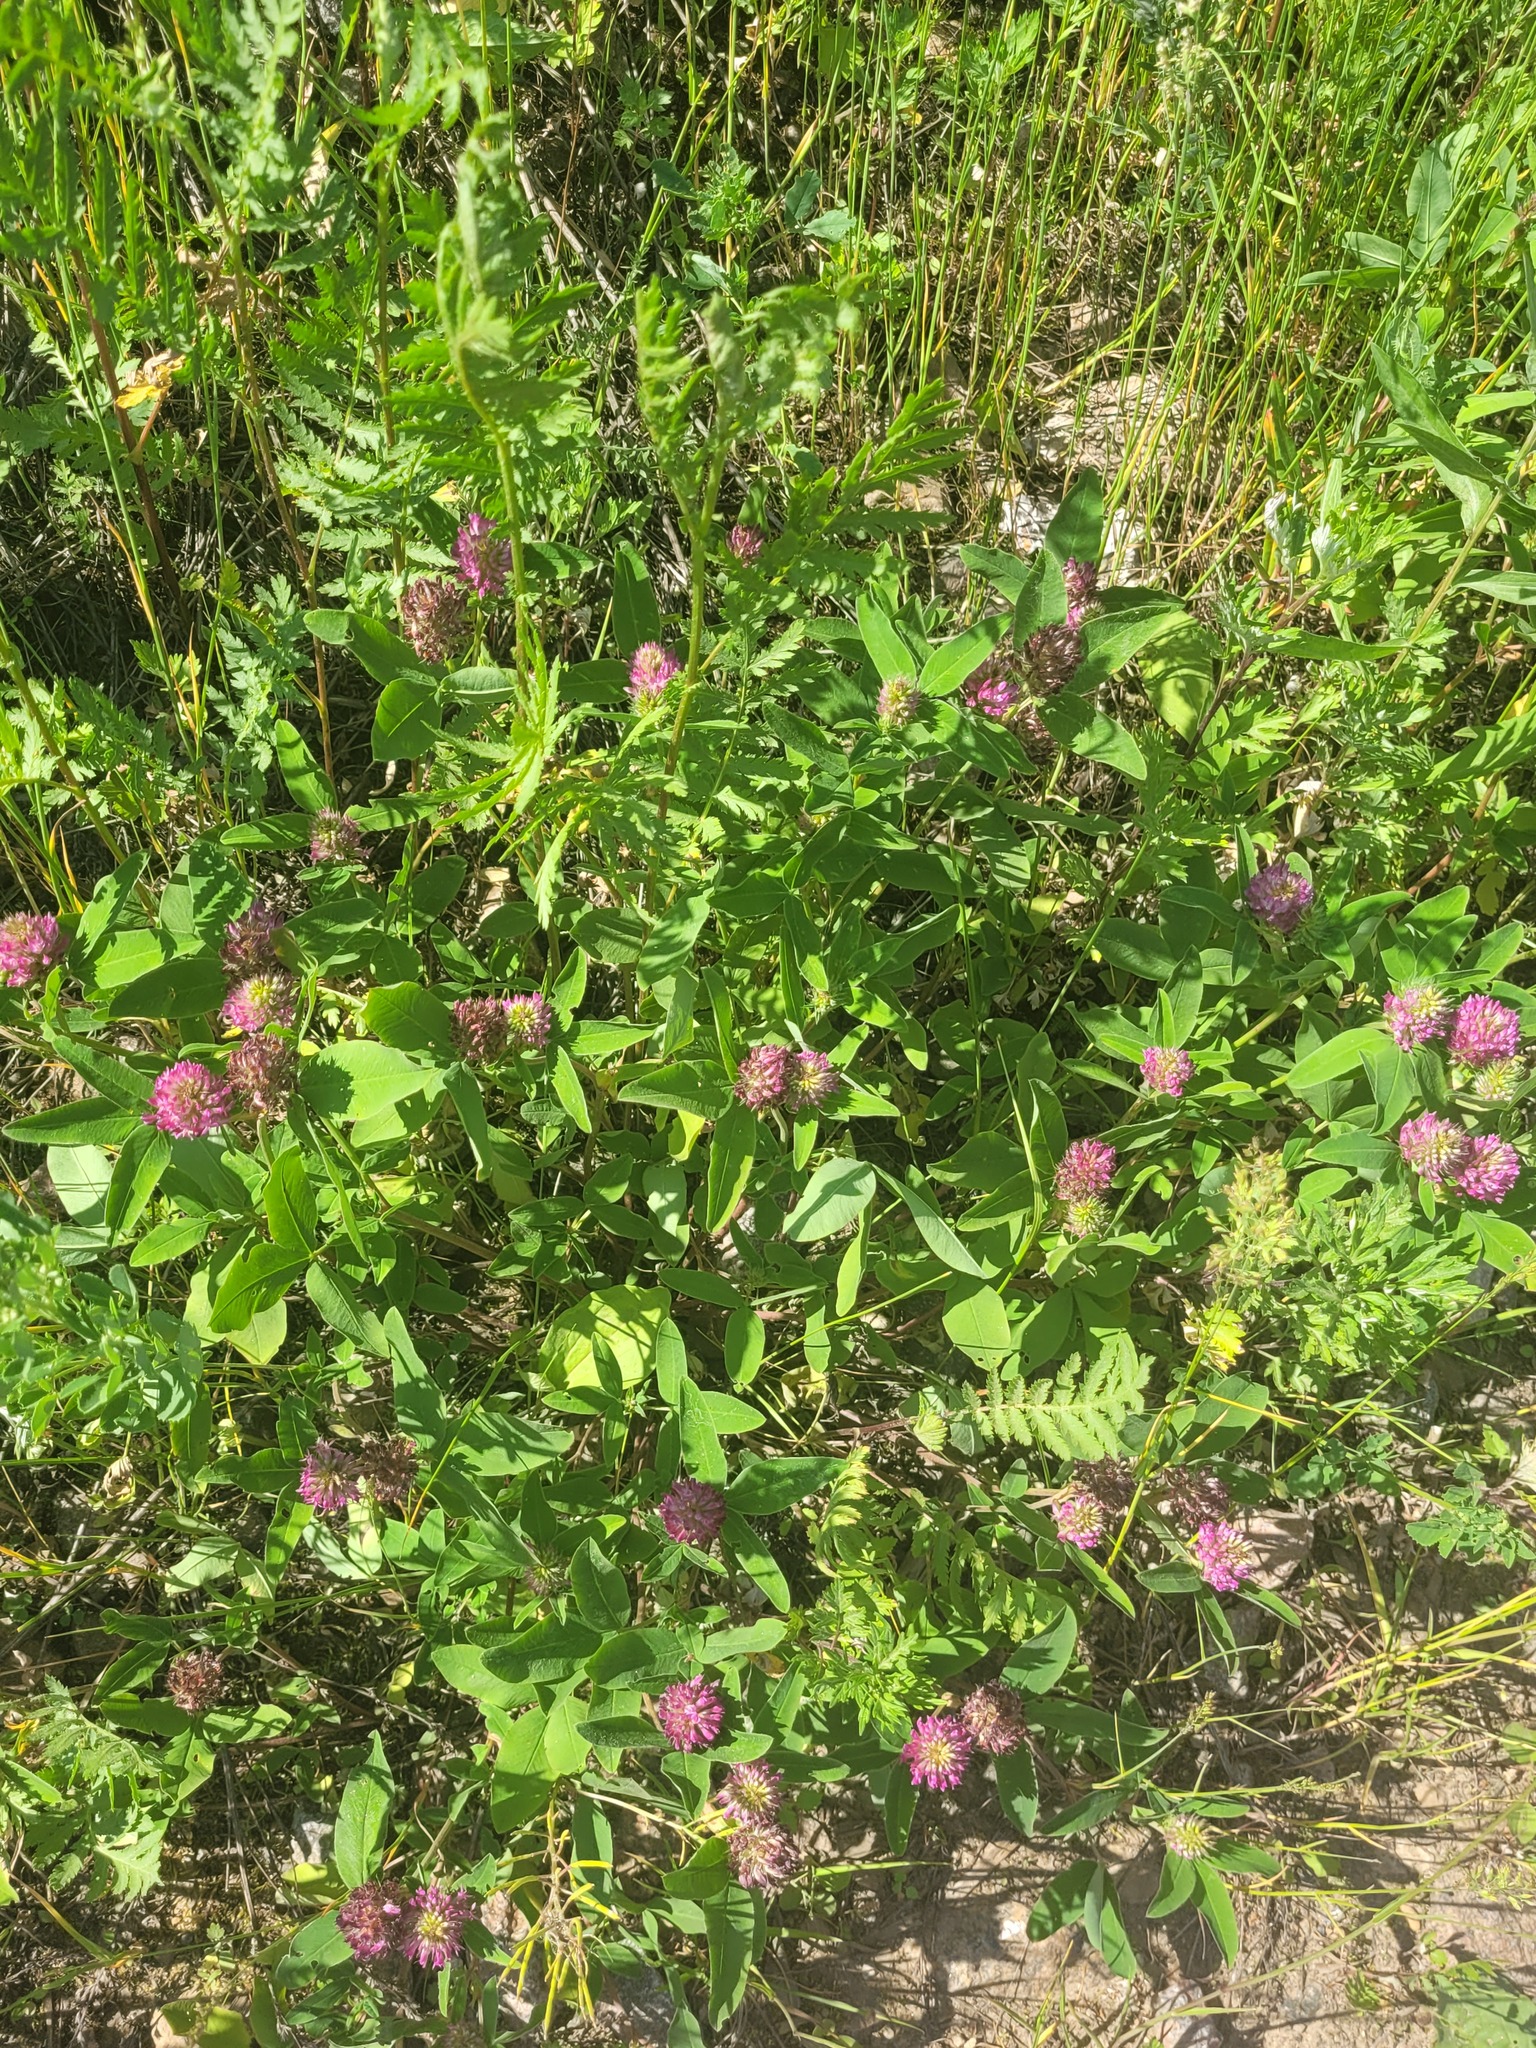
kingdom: Plantae
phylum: Tracheophyta
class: Magnoliopsida
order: Fabales
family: Fabaceae
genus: Trifolium
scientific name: Trifolium medium
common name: Zigzag clover
